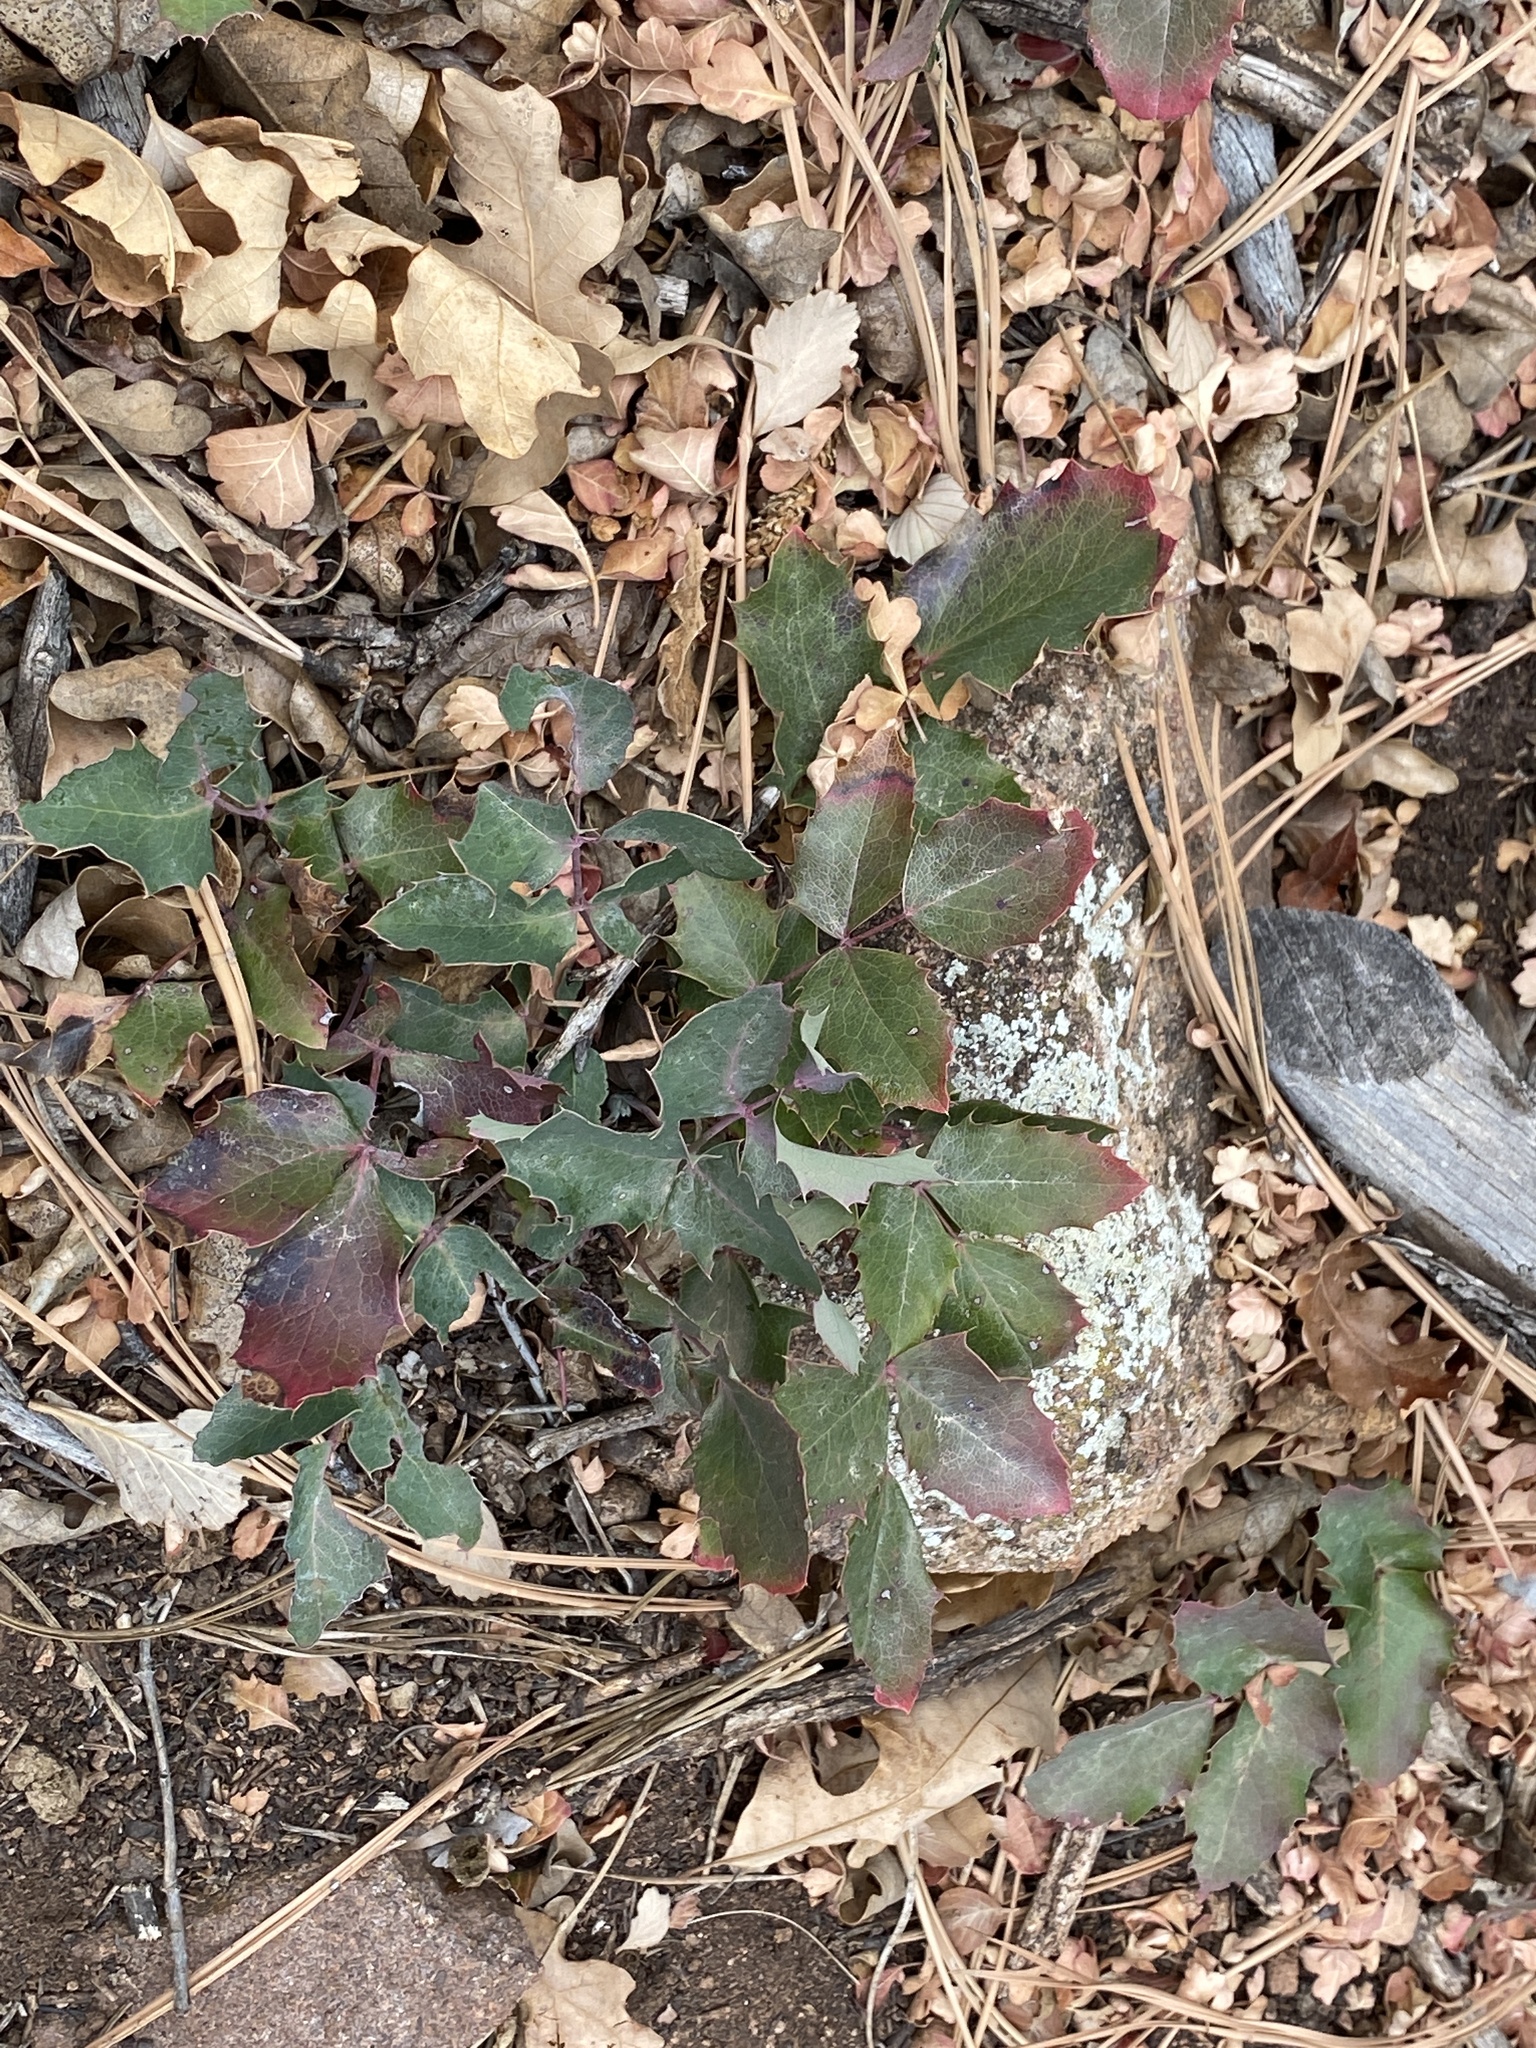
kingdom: Plantae
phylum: Tracheophyta
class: Magnoliopsida
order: Ranunculales
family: Berberidaceae
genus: Mahonia
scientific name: Mahonia repens
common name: Creeping oregon-grape
